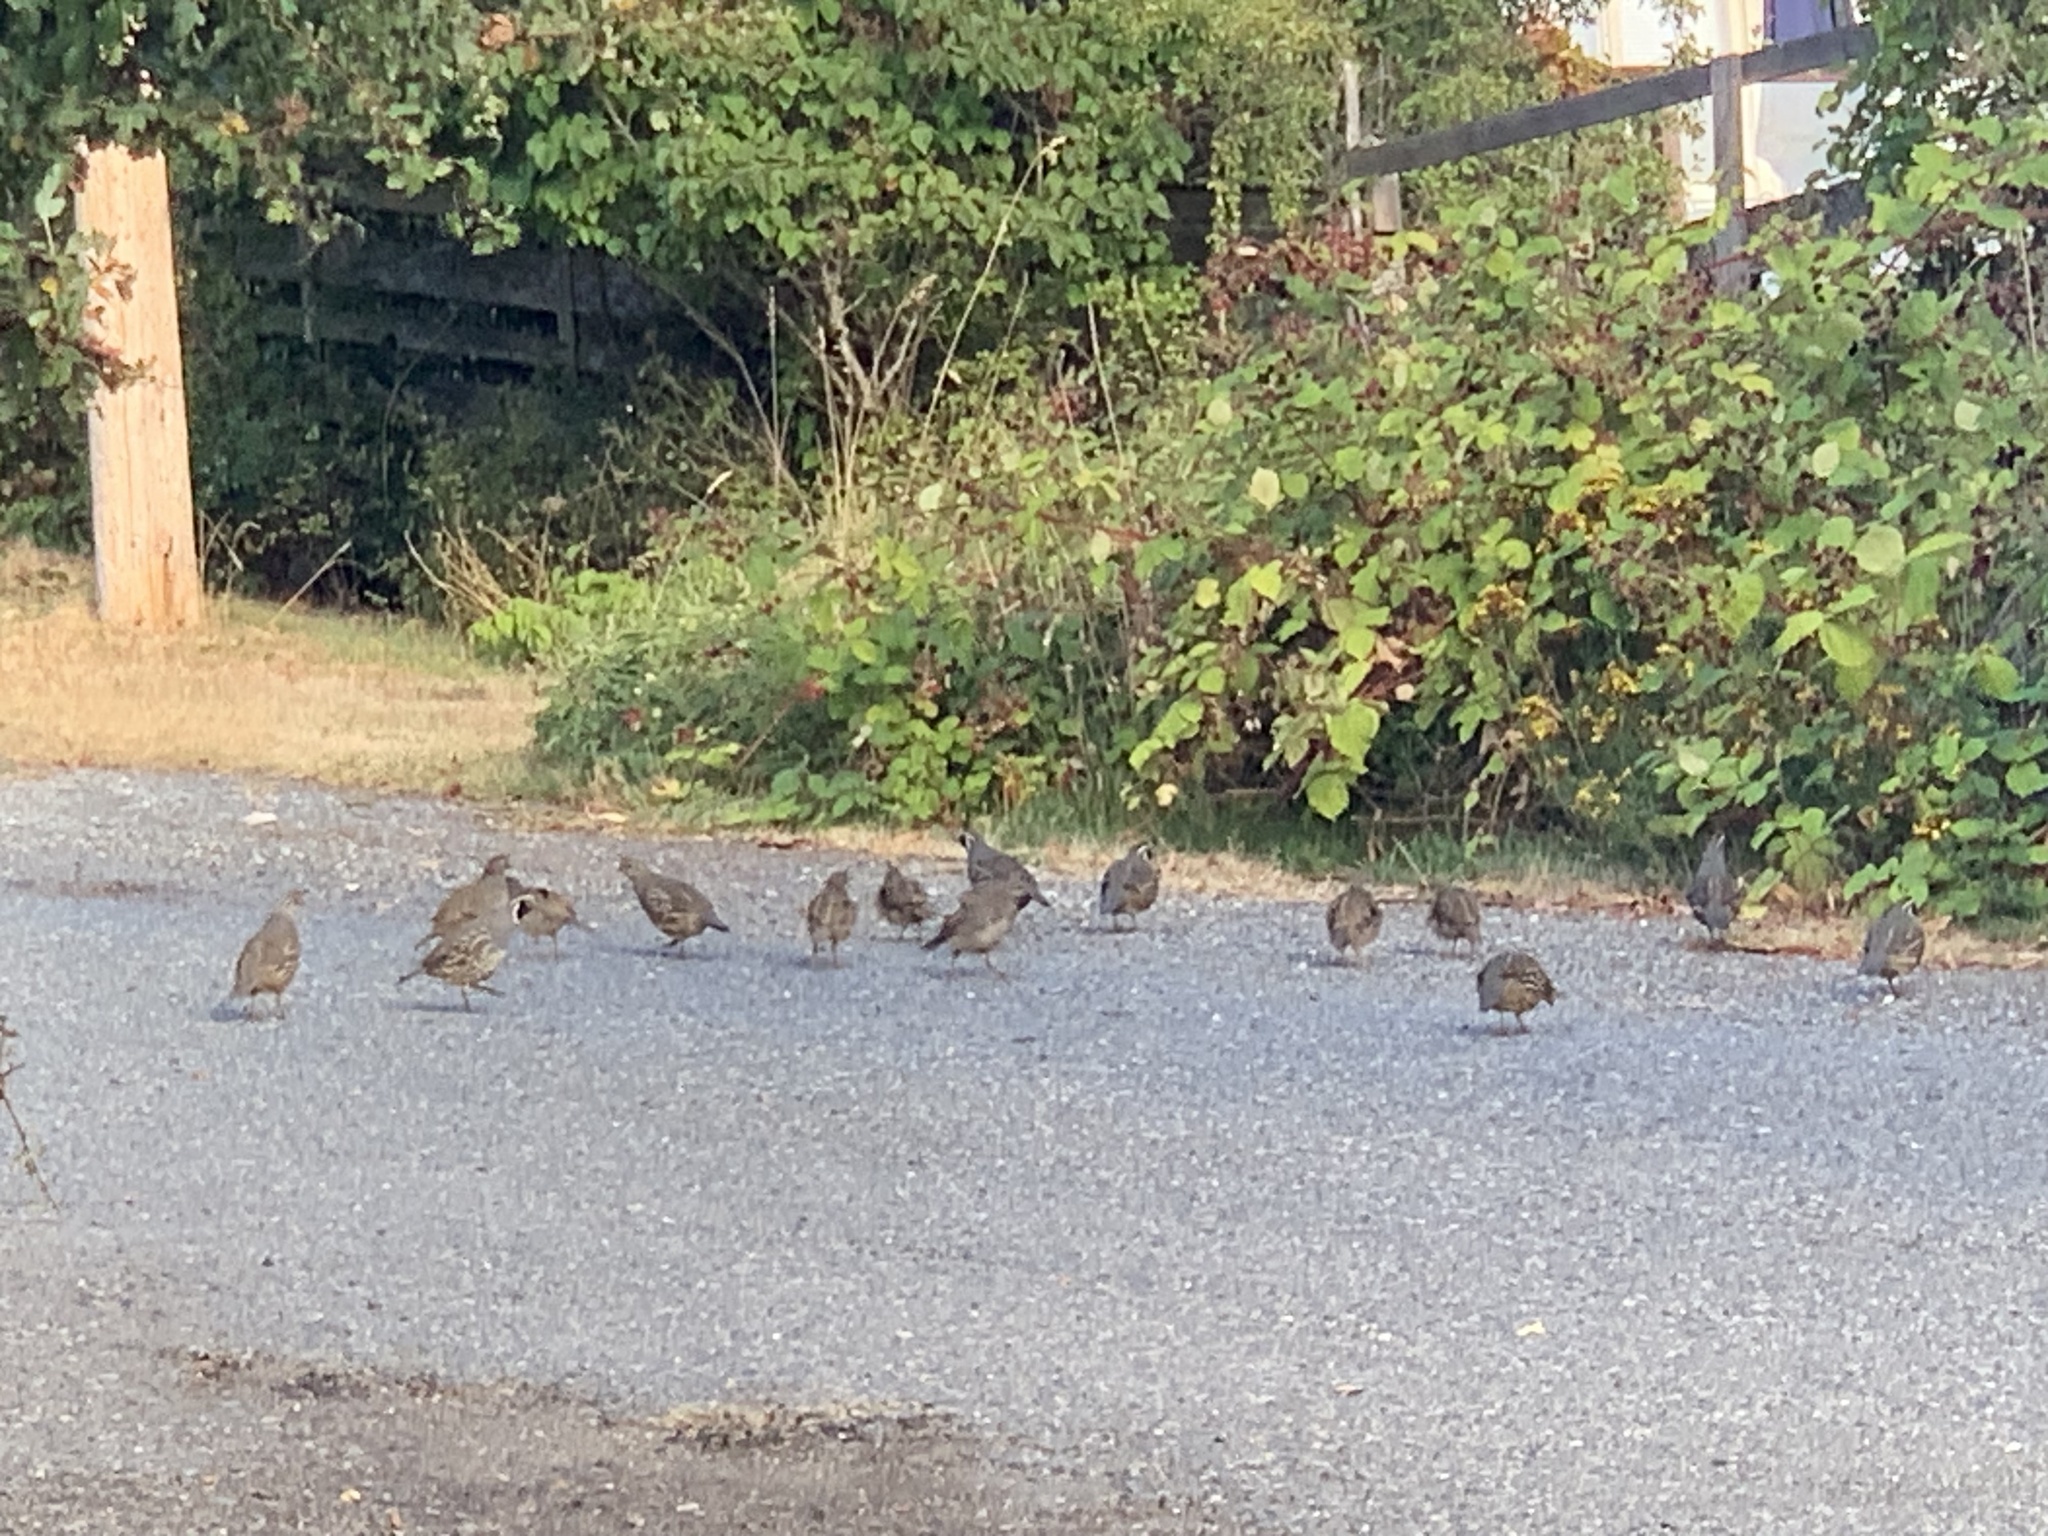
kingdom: Animalia
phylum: Chordata
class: Aves
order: Galliformes
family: Odontophoridae
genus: Callipepla
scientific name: Callipepla californica
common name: California quail
